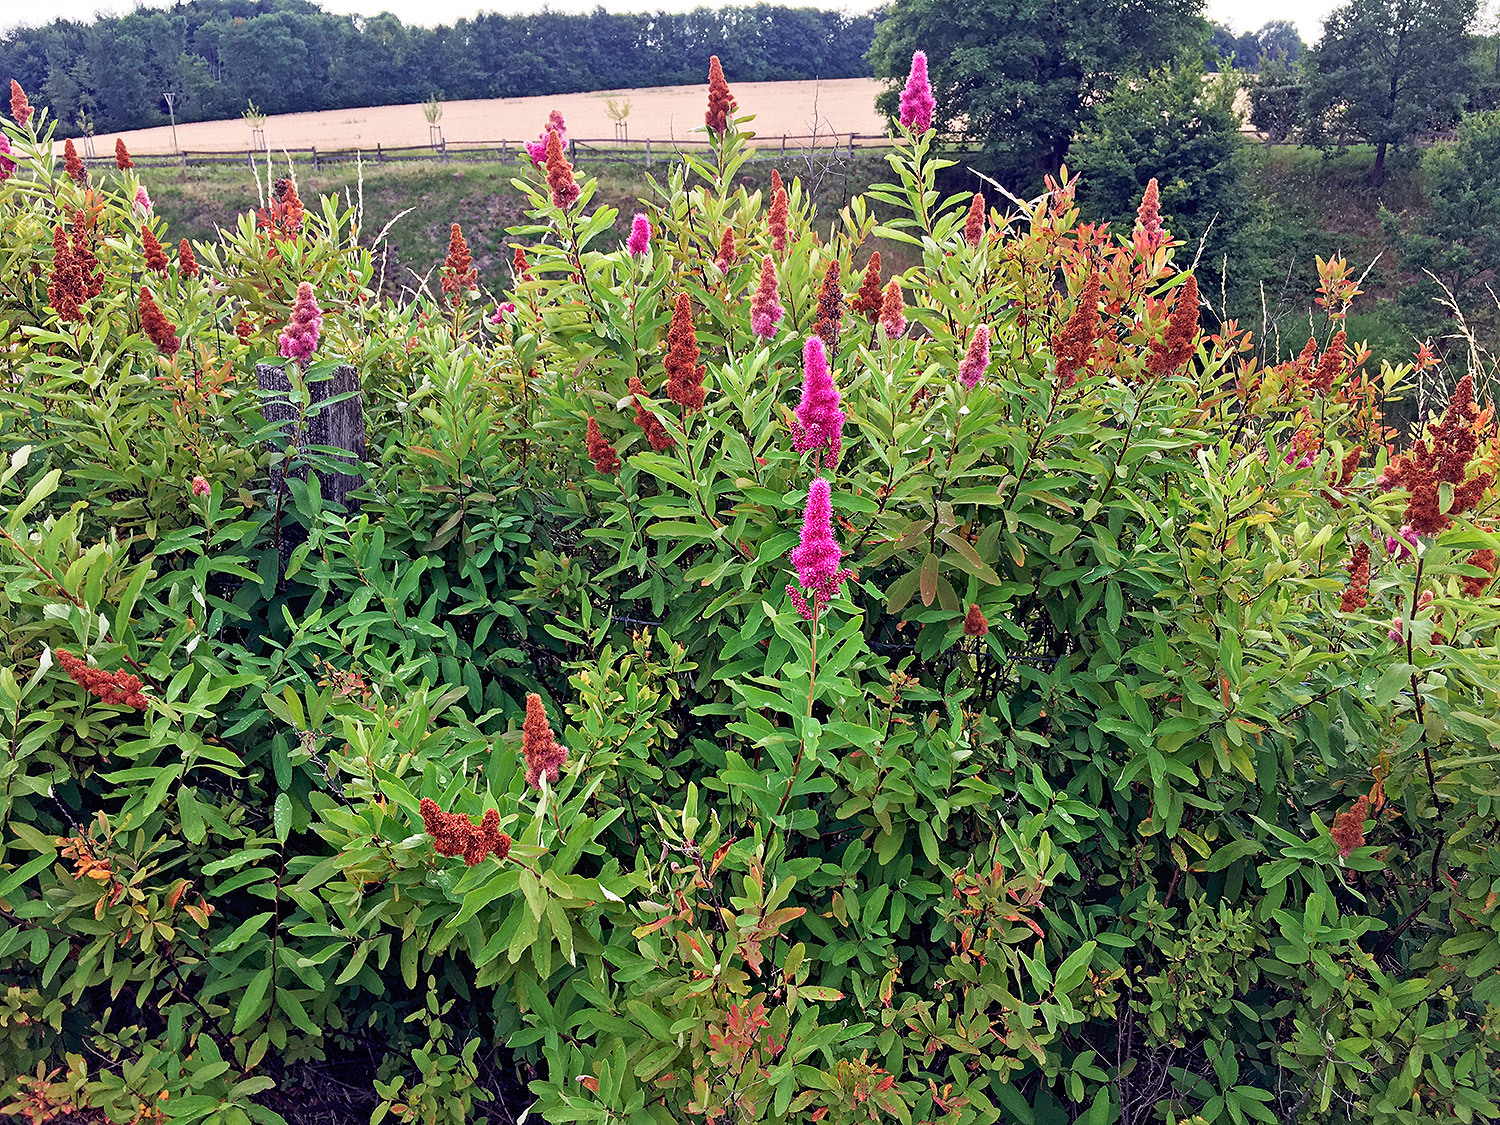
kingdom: Plantae
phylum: Tracheophyta
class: Magnoliopsida
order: Rosales
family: Rosaceae
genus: Spiraea
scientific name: Spiraea douglasii
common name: Steeplebush
